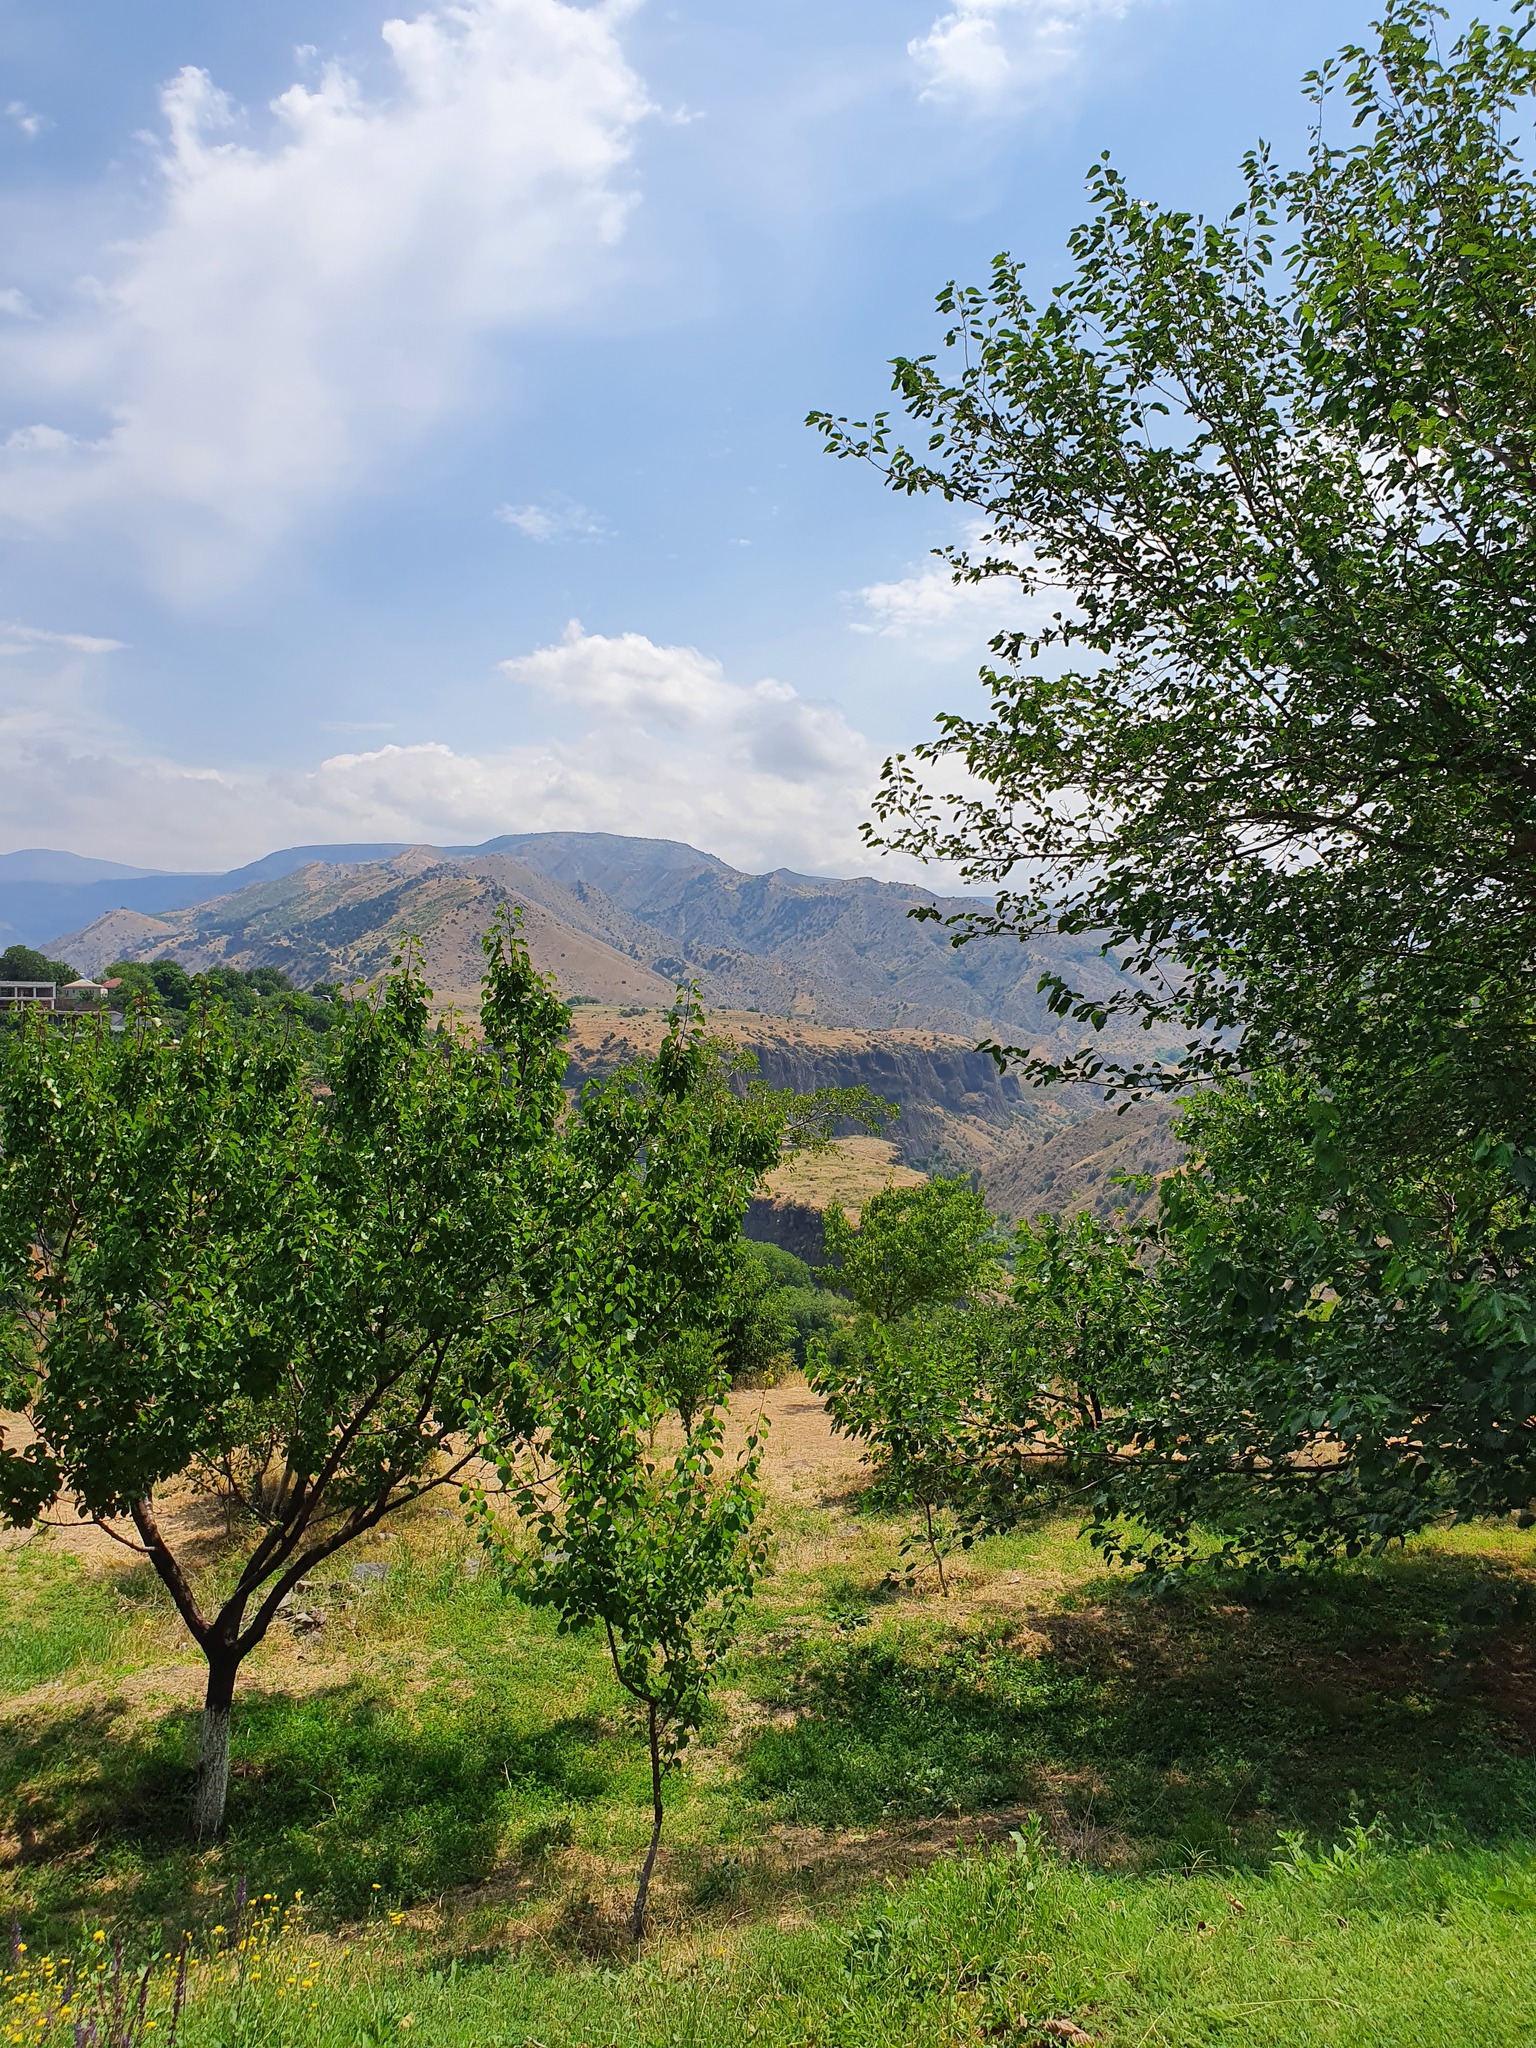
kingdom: Plantae
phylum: Tracheophyta
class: Magnoliopsida
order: Rosales
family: Rosaceae
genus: Prunus
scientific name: Prunus armeniaca
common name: Apricot
